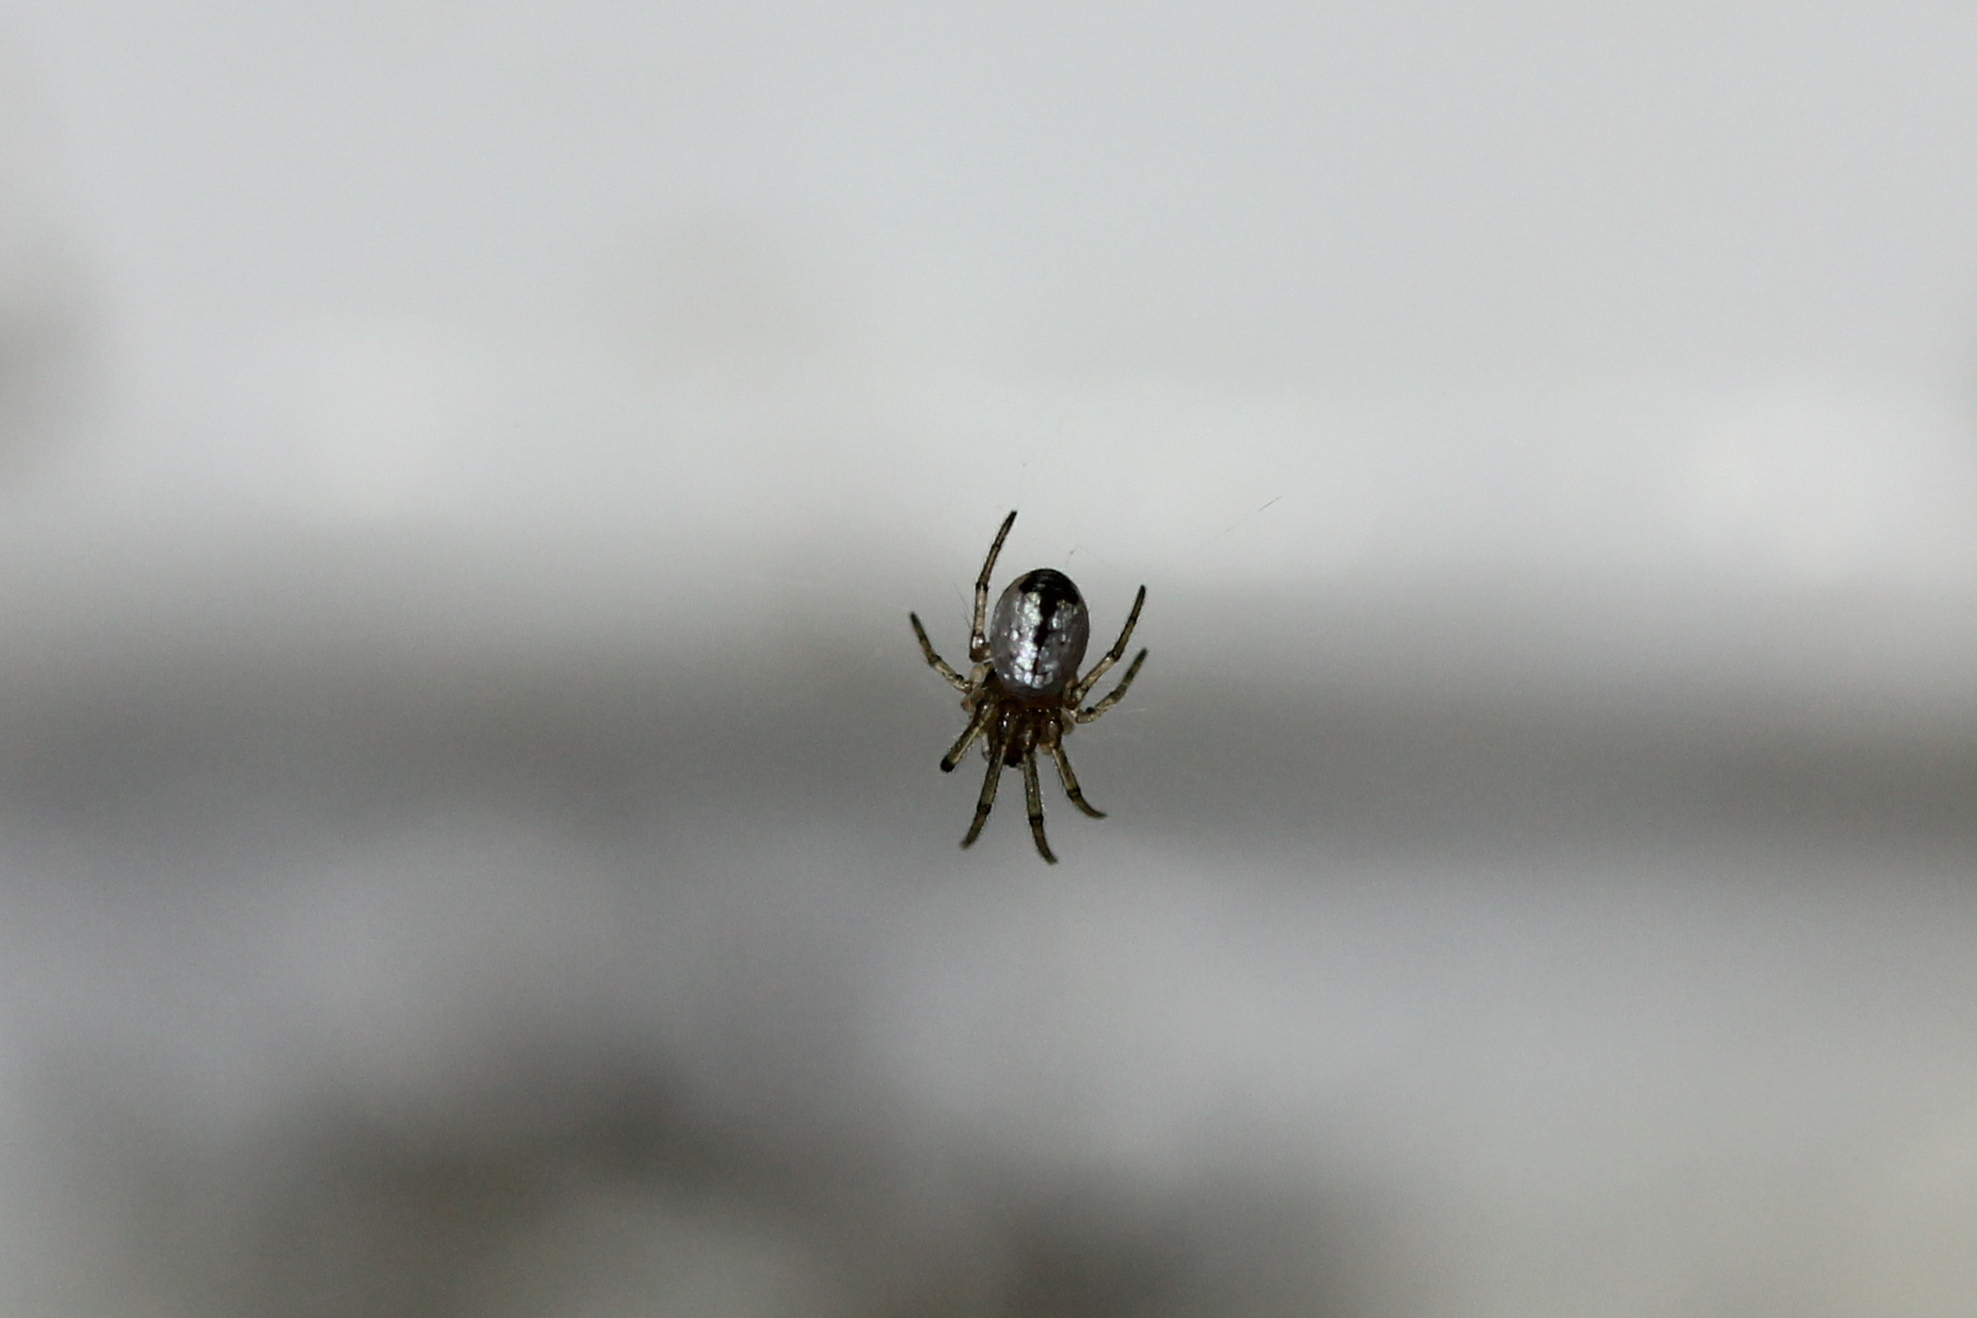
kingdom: Animalia
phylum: Arthropoda
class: Arachnida
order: Araneae
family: Tetragnathidae
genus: Leucauge
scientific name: Leucauge venusta
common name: Longjawed orb weavers
